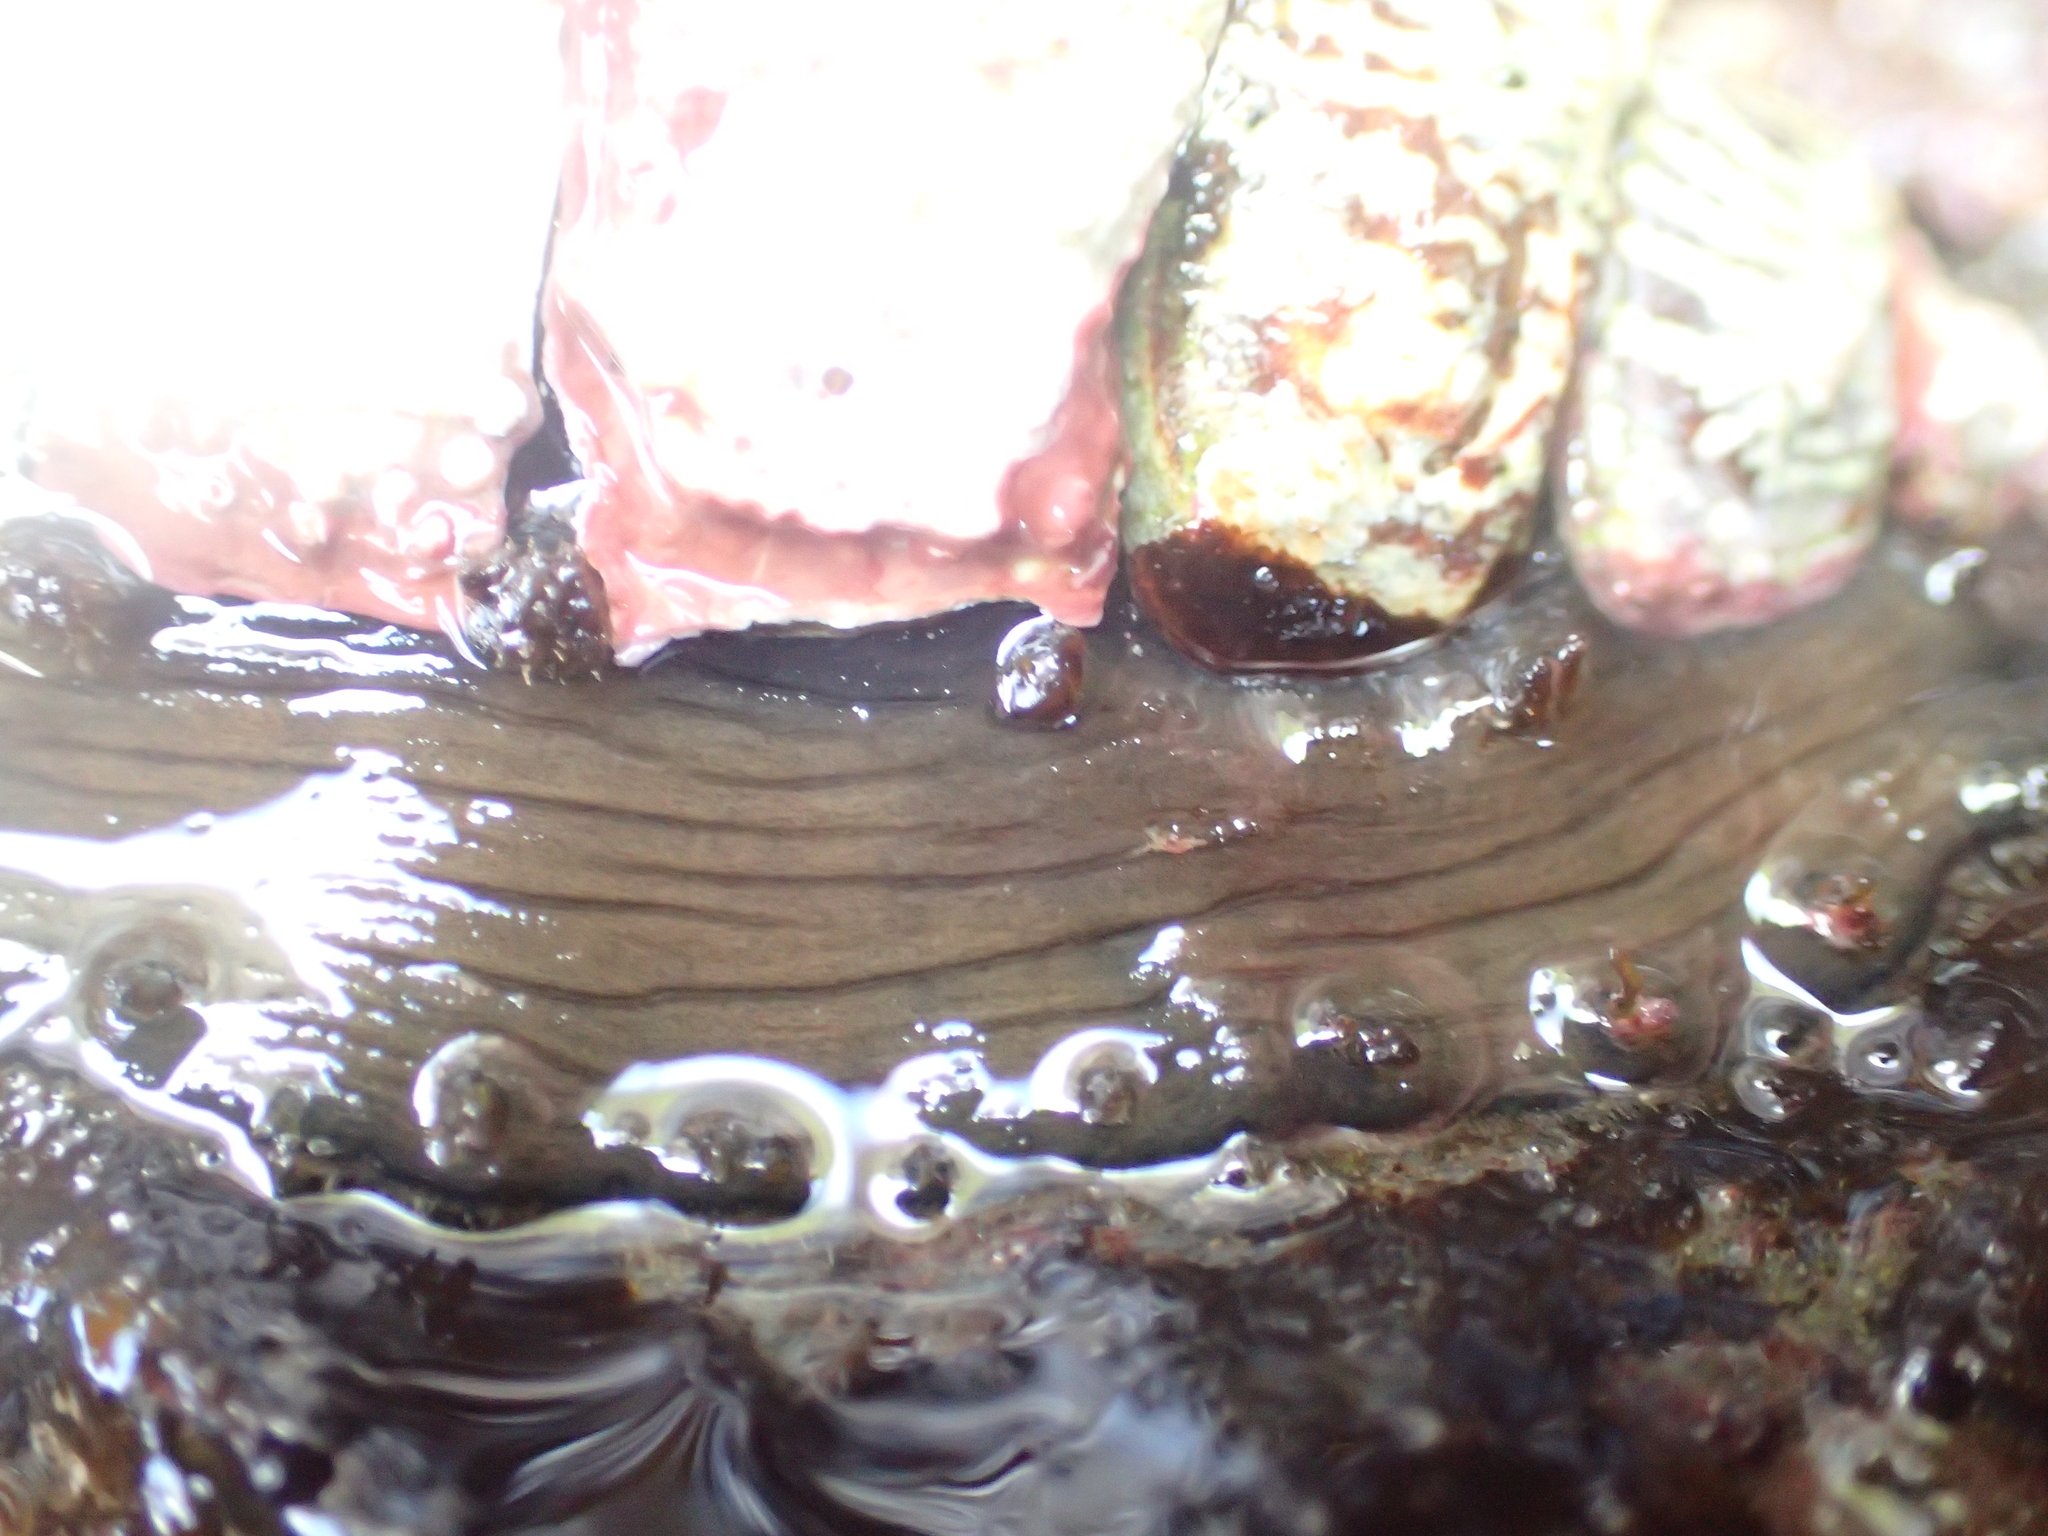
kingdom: Animalia
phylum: Mollusca
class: Polyplacophora
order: Chitonida
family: Mopaliidae
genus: Plaxiphora
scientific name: Plaxiphora biramosa
